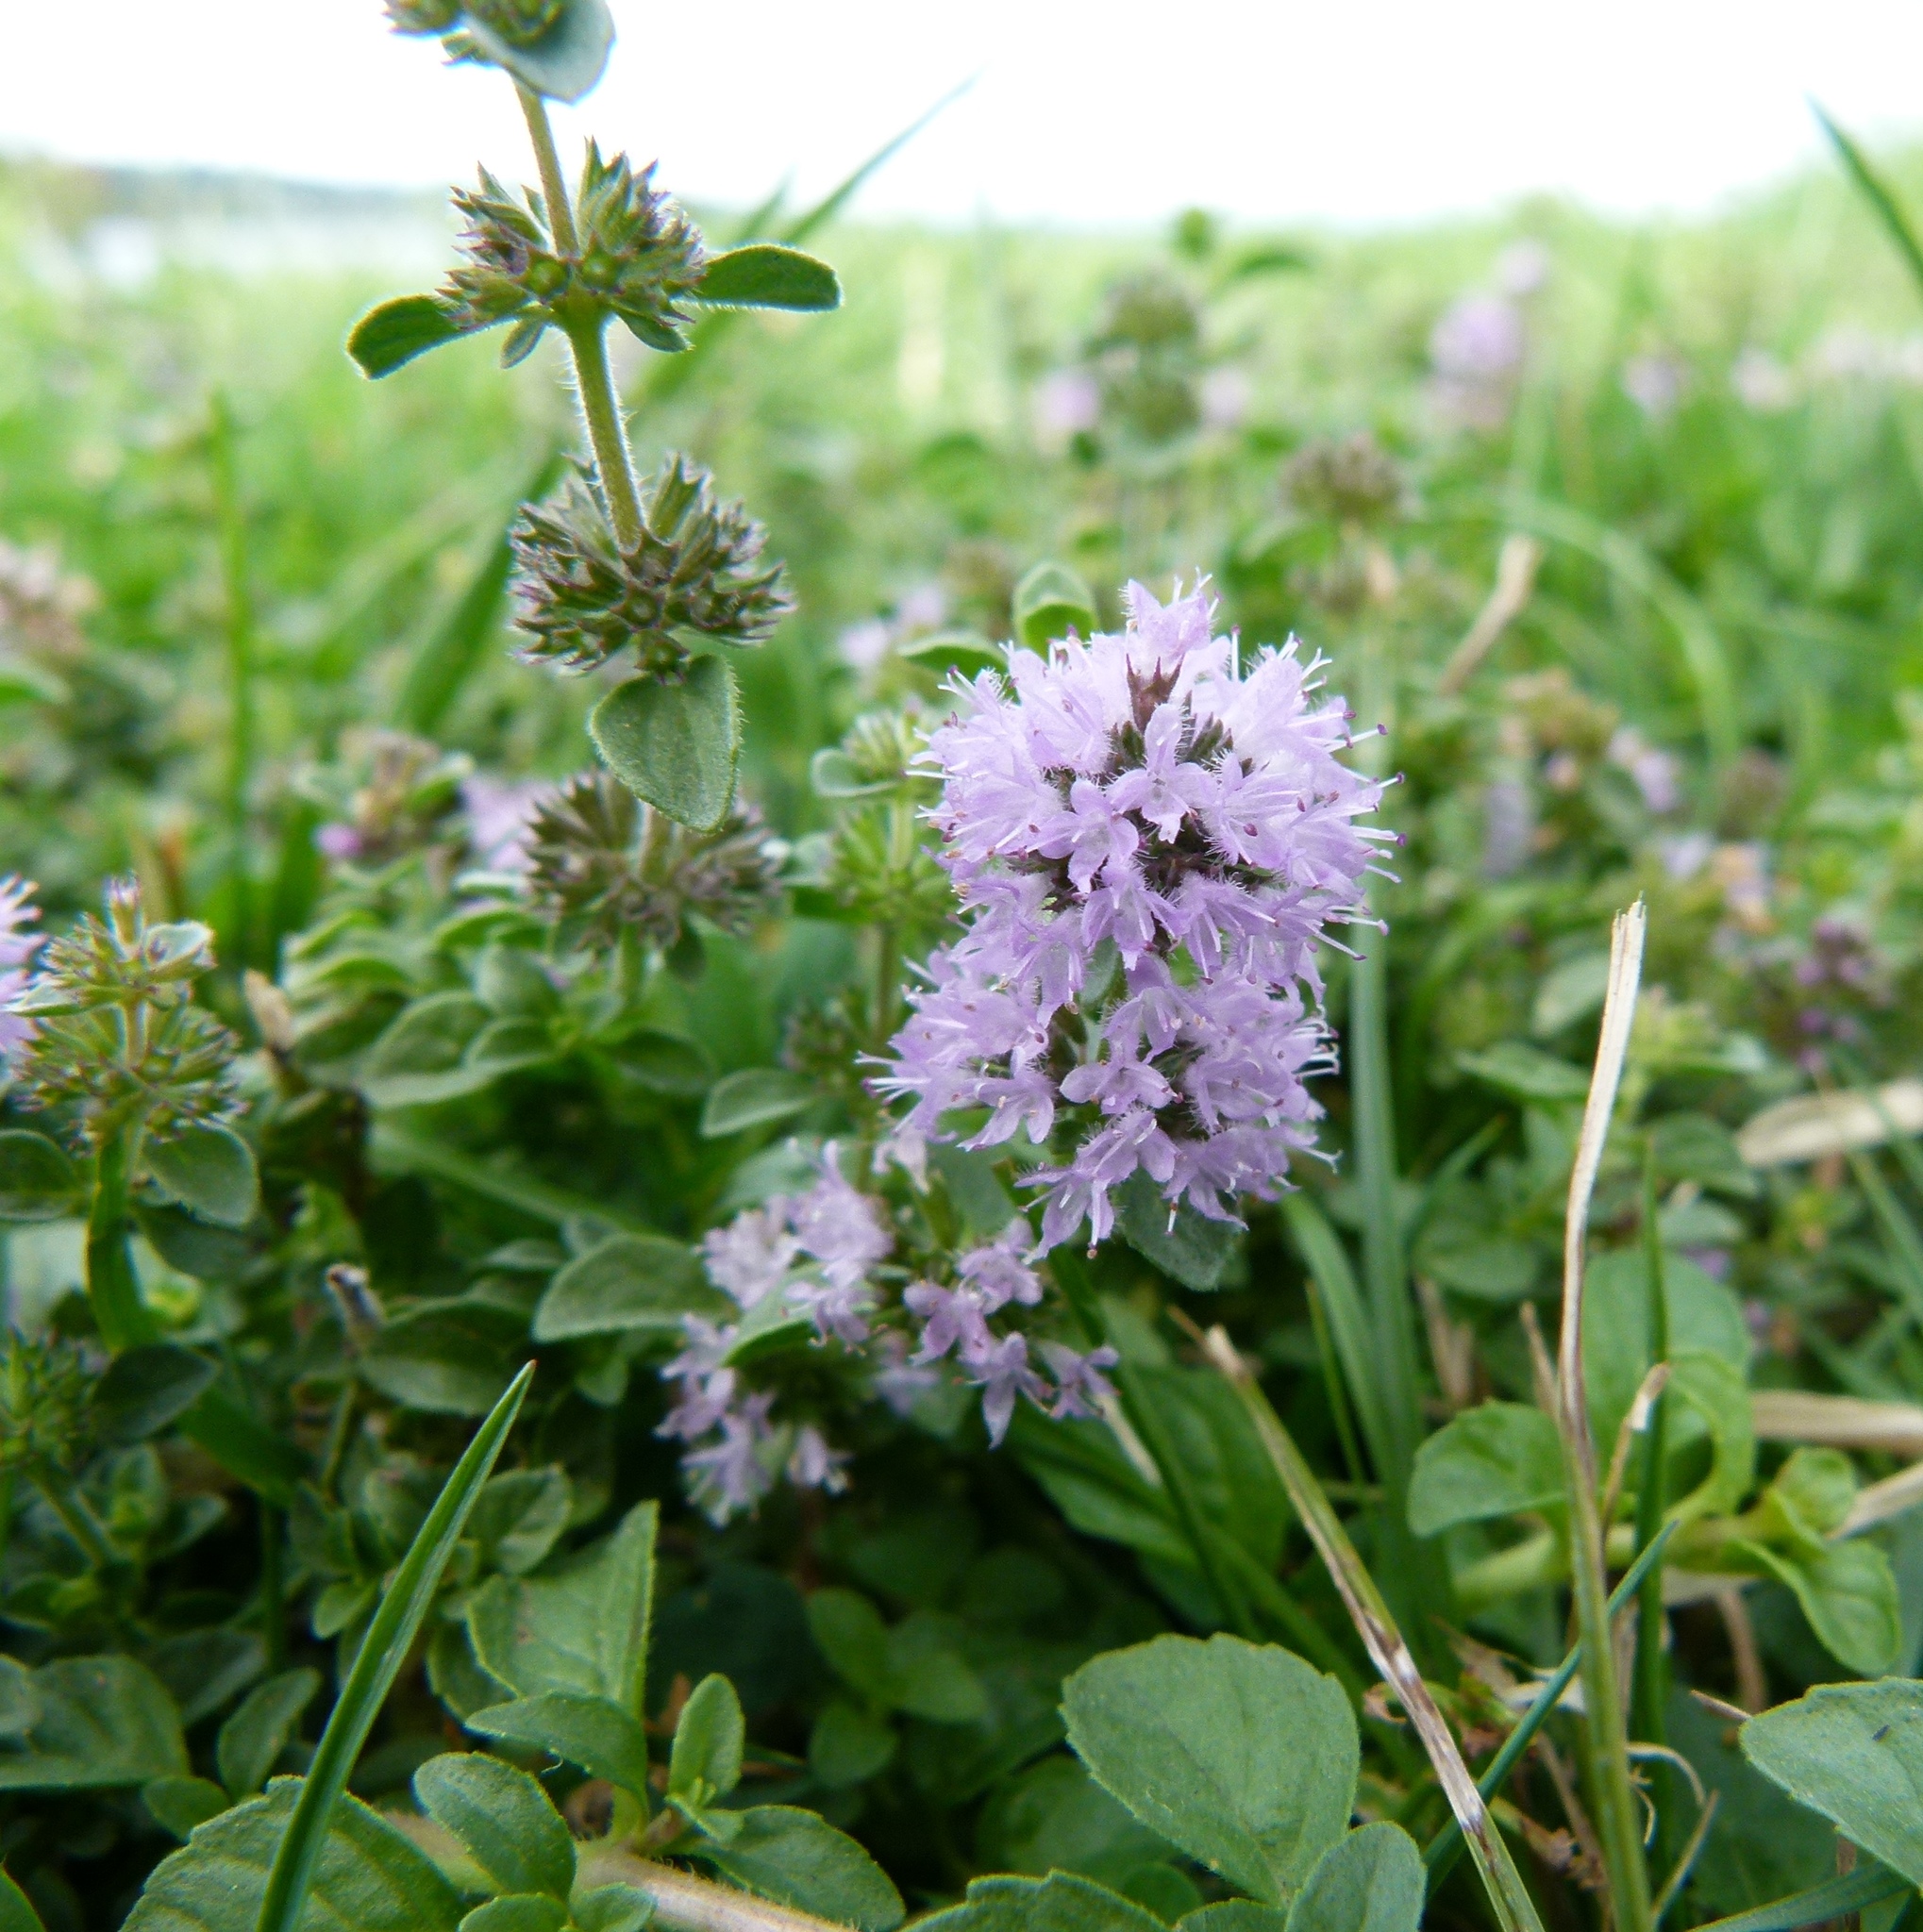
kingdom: Plantae
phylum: Tracheophyta
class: Magnoliopsida
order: Lamiales
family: Lamiaceae
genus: Mentha
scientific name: Mentha pulegium
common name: Pennyroyal
